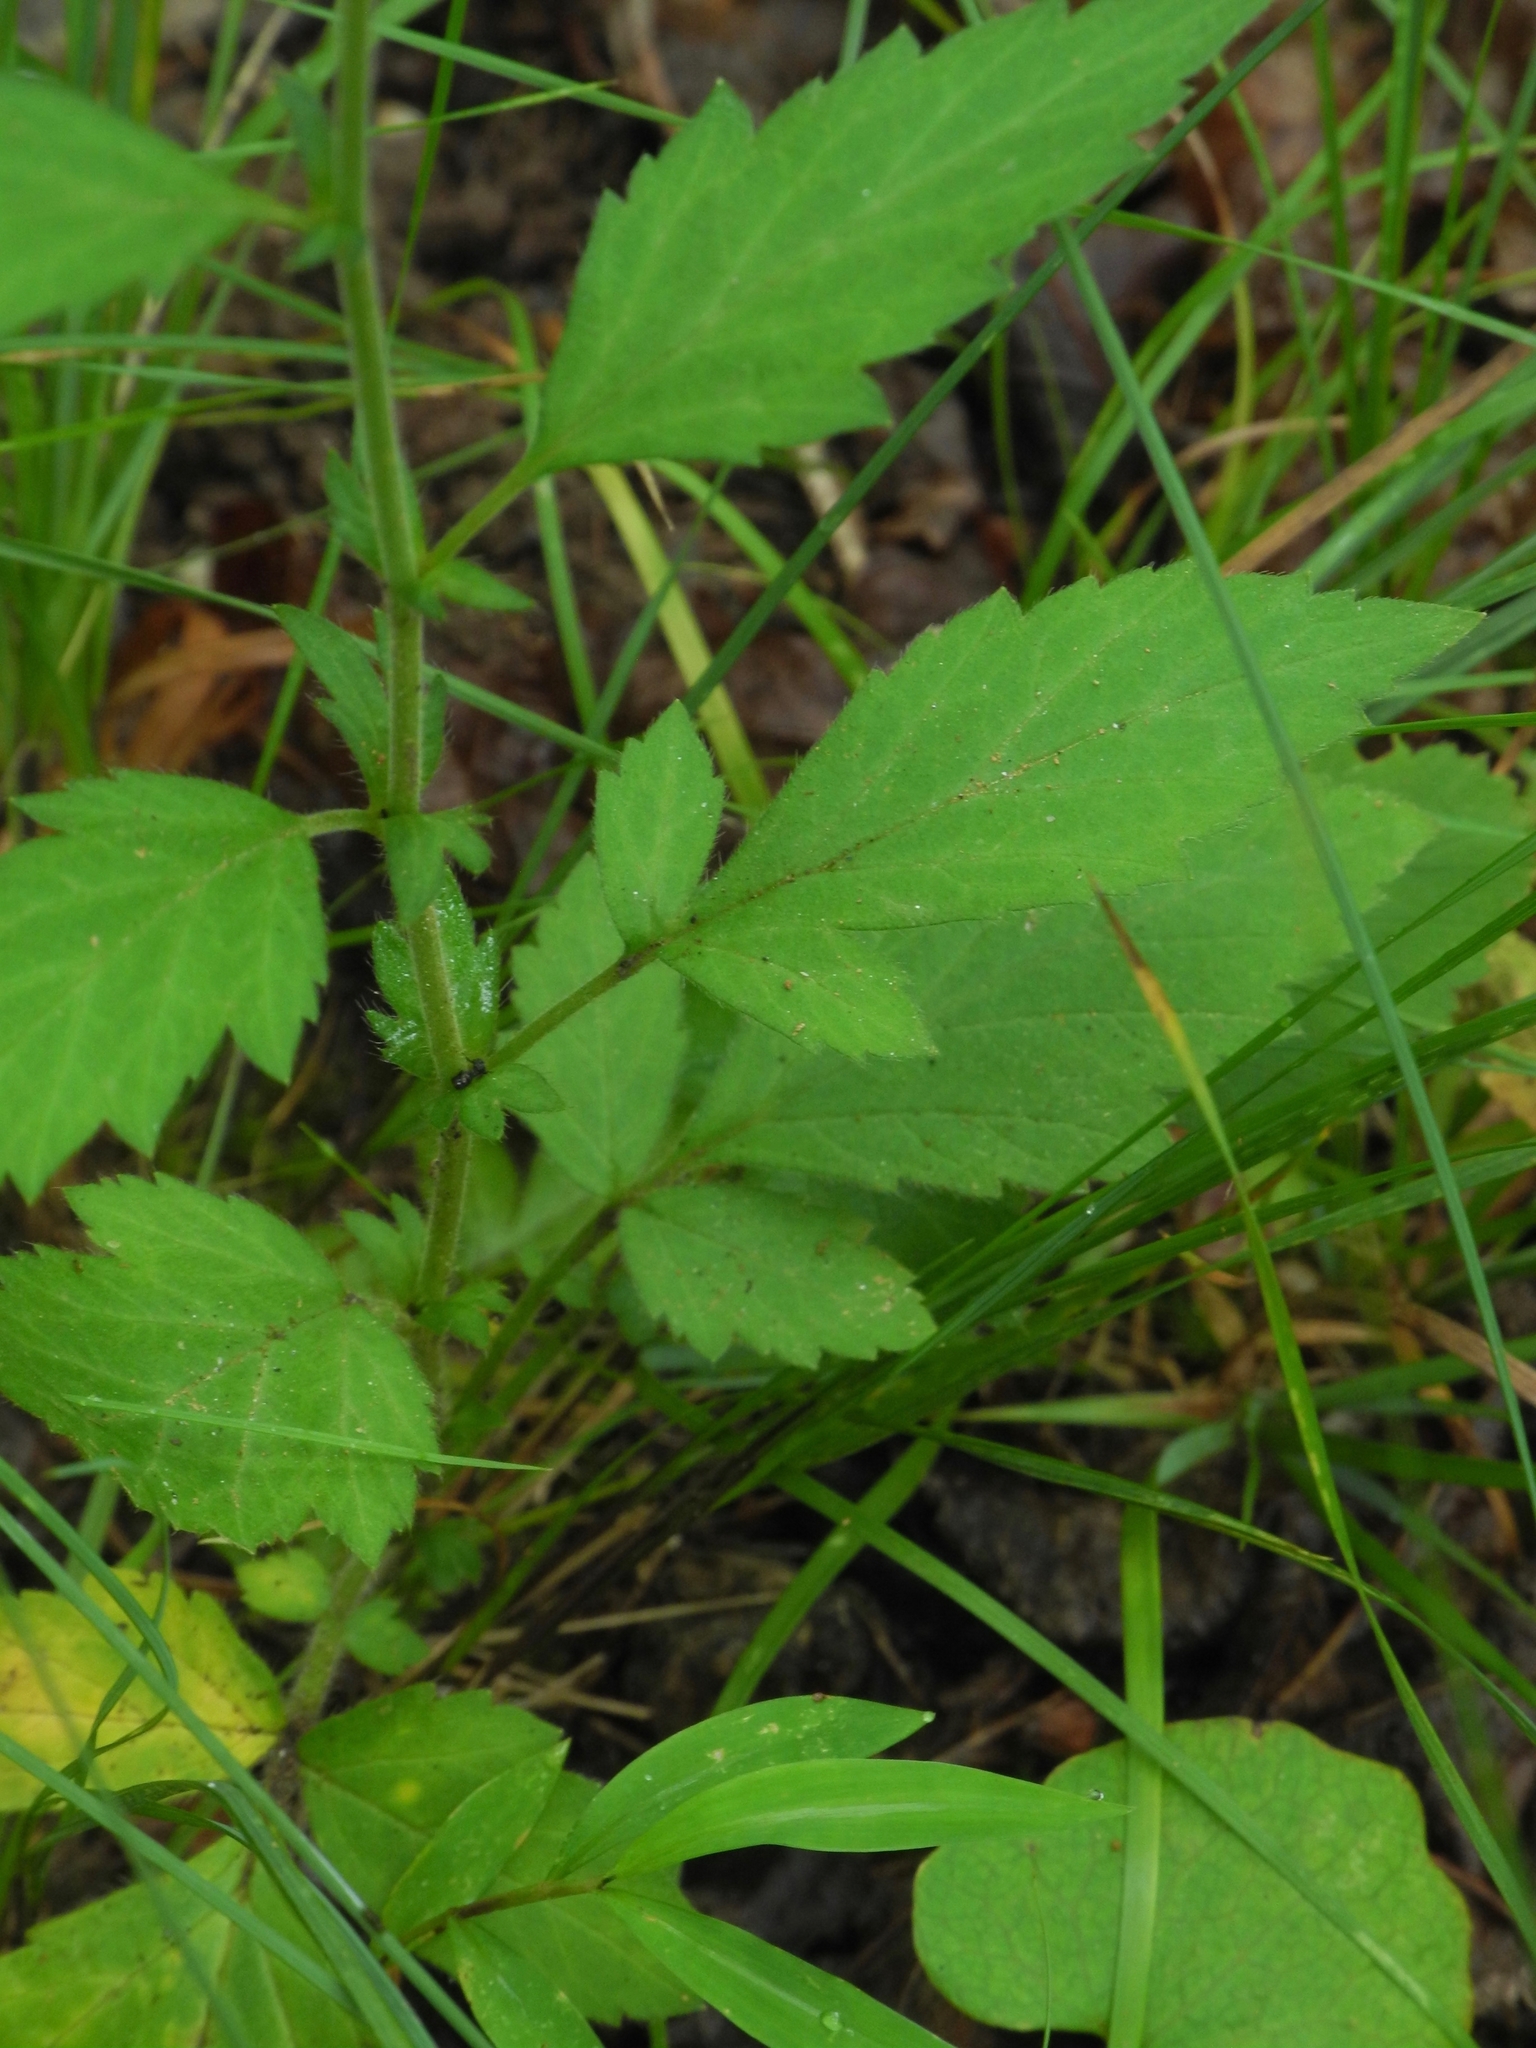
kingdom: Plantae
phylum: Tracheophyta
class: Magnoliopsida
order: Rosales
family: Rosaceae
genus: Geum
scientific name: Geum virginianum
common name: Cream avens
